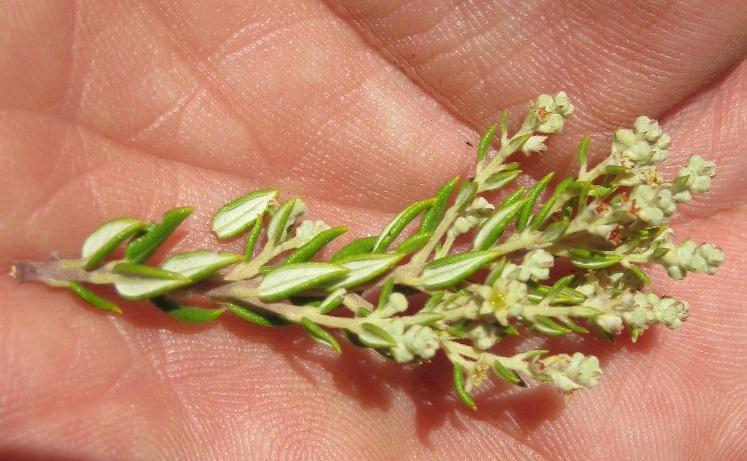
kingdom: Plantae
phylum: Tracheophyta
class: Magnoliopsida
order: Rosales
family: Rhamnaceae
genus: Phylica
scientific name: Phylica paniculata
